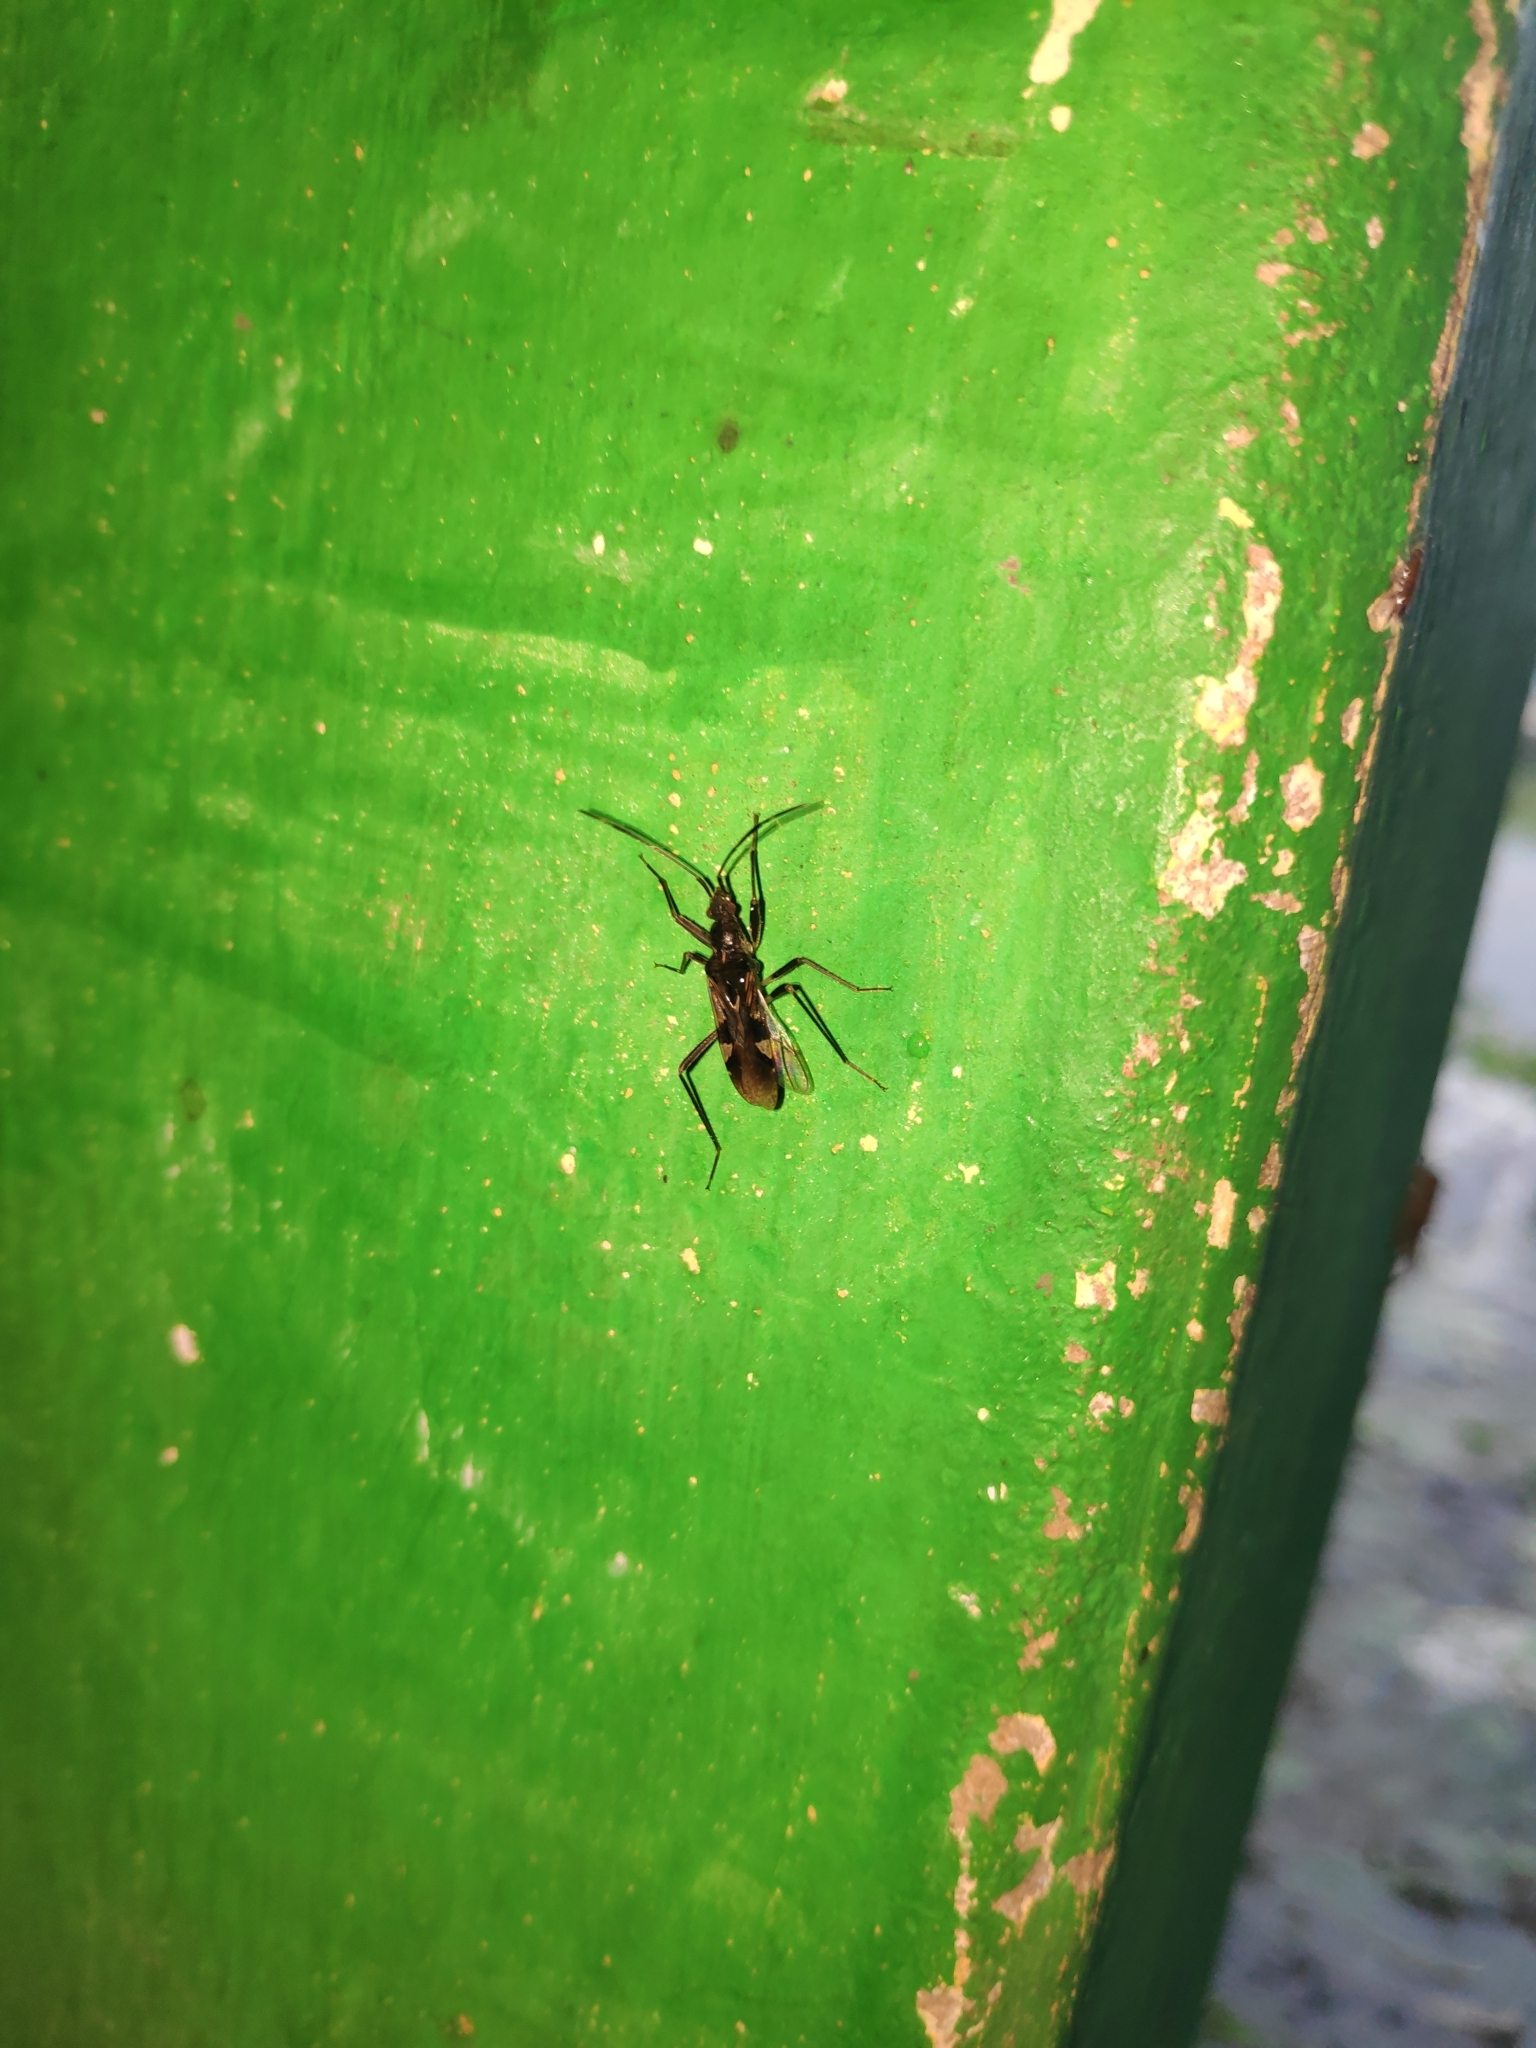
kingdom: Animalia
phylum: Arthropoda
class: Insecta
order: Hemiptera
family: Rhyparochromidae
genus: Metochus
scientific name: Metochus uniguttatus
